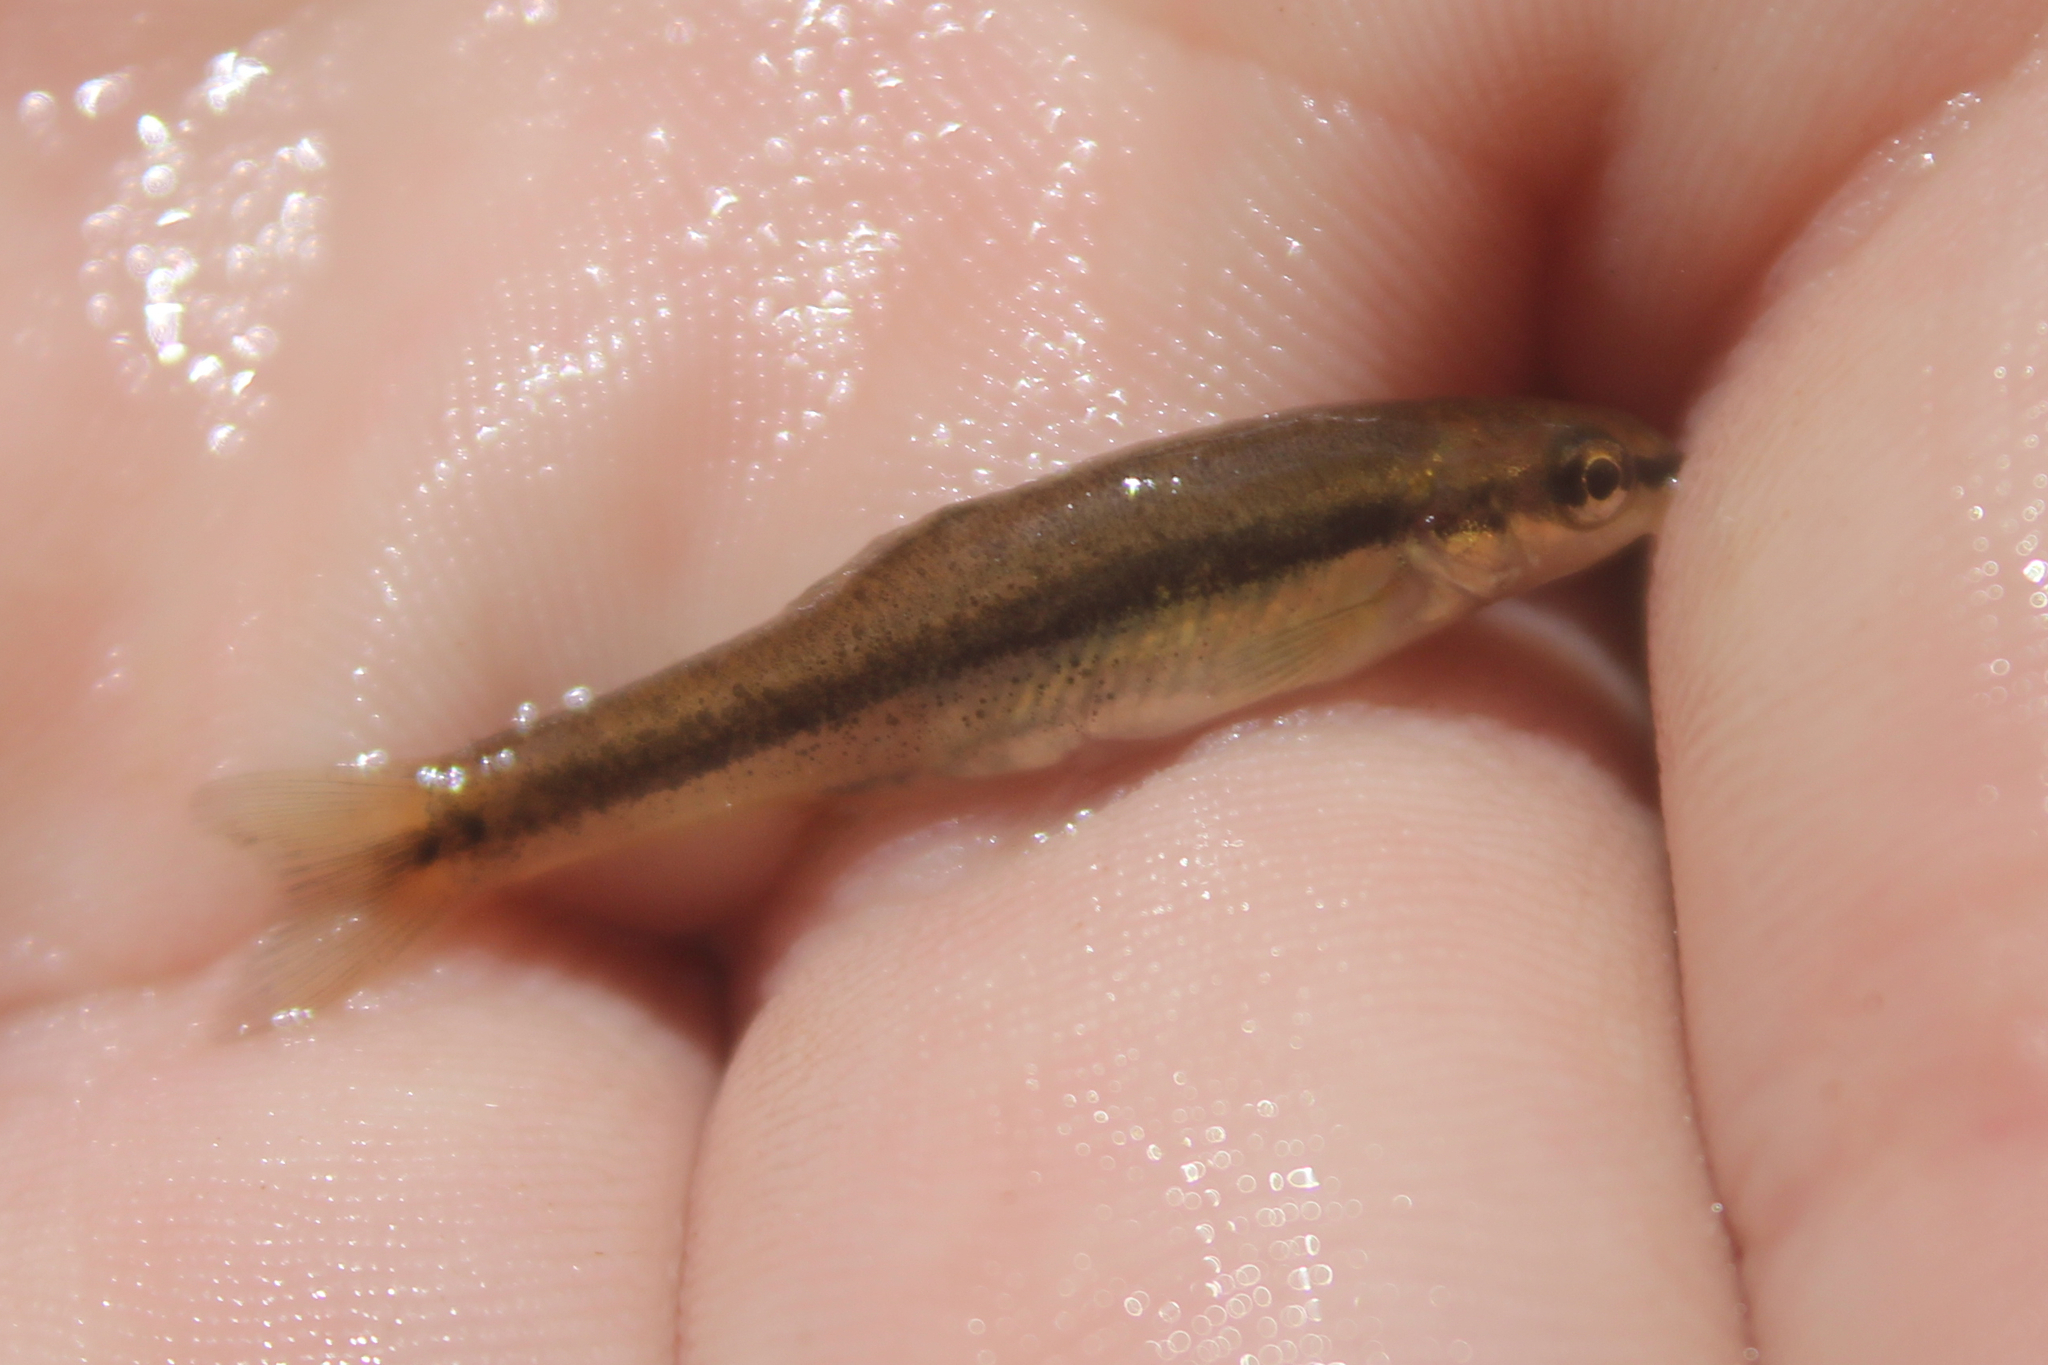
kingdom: Animalia
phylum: Platyhelminthes
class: Trematoda
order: Diplostomida
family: Diplostomidae
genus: Neascus
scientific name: Neascus
